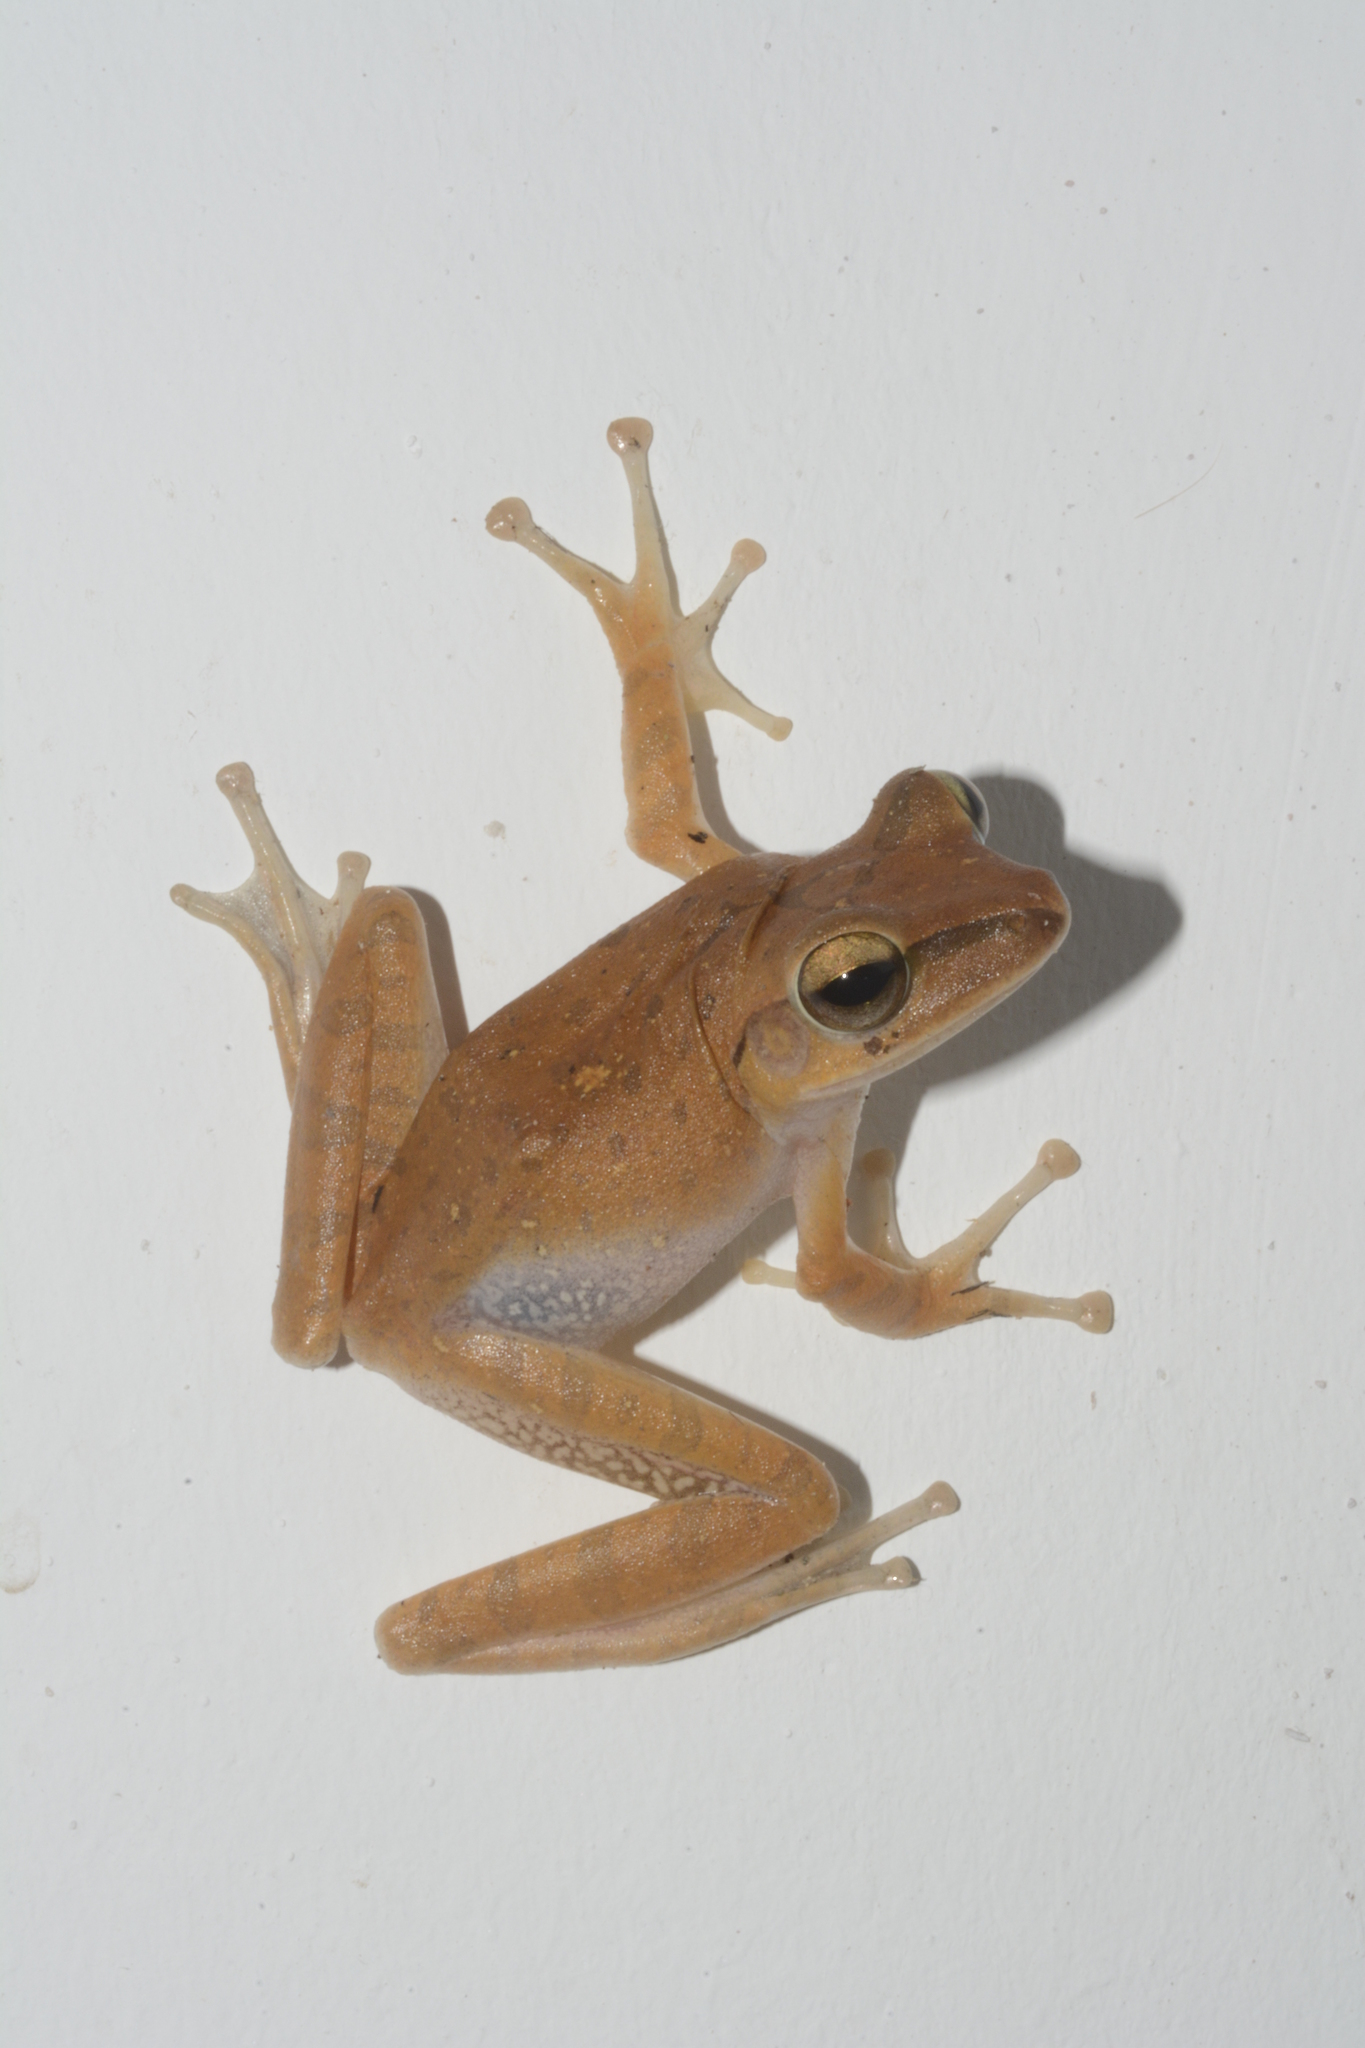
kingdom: Animalia
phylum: Chordata
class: Amphibia
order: Anura
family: Rhacophoridae
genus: Polypedates
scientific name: Polypedates megacephalus
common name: Hong kong whipping frog
